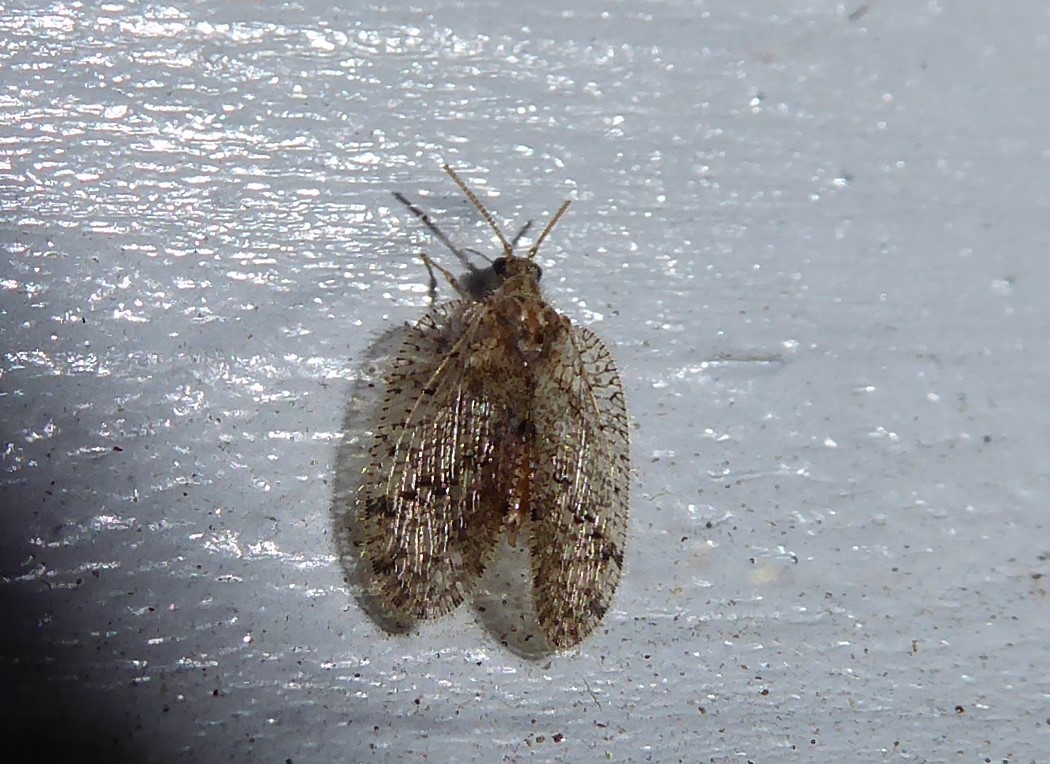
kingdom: Animalia
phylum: Arthropoda
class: Insecta
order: Neuroptera
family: Hemerobiidae
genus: Psectra
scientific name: Psectra nakaharai
